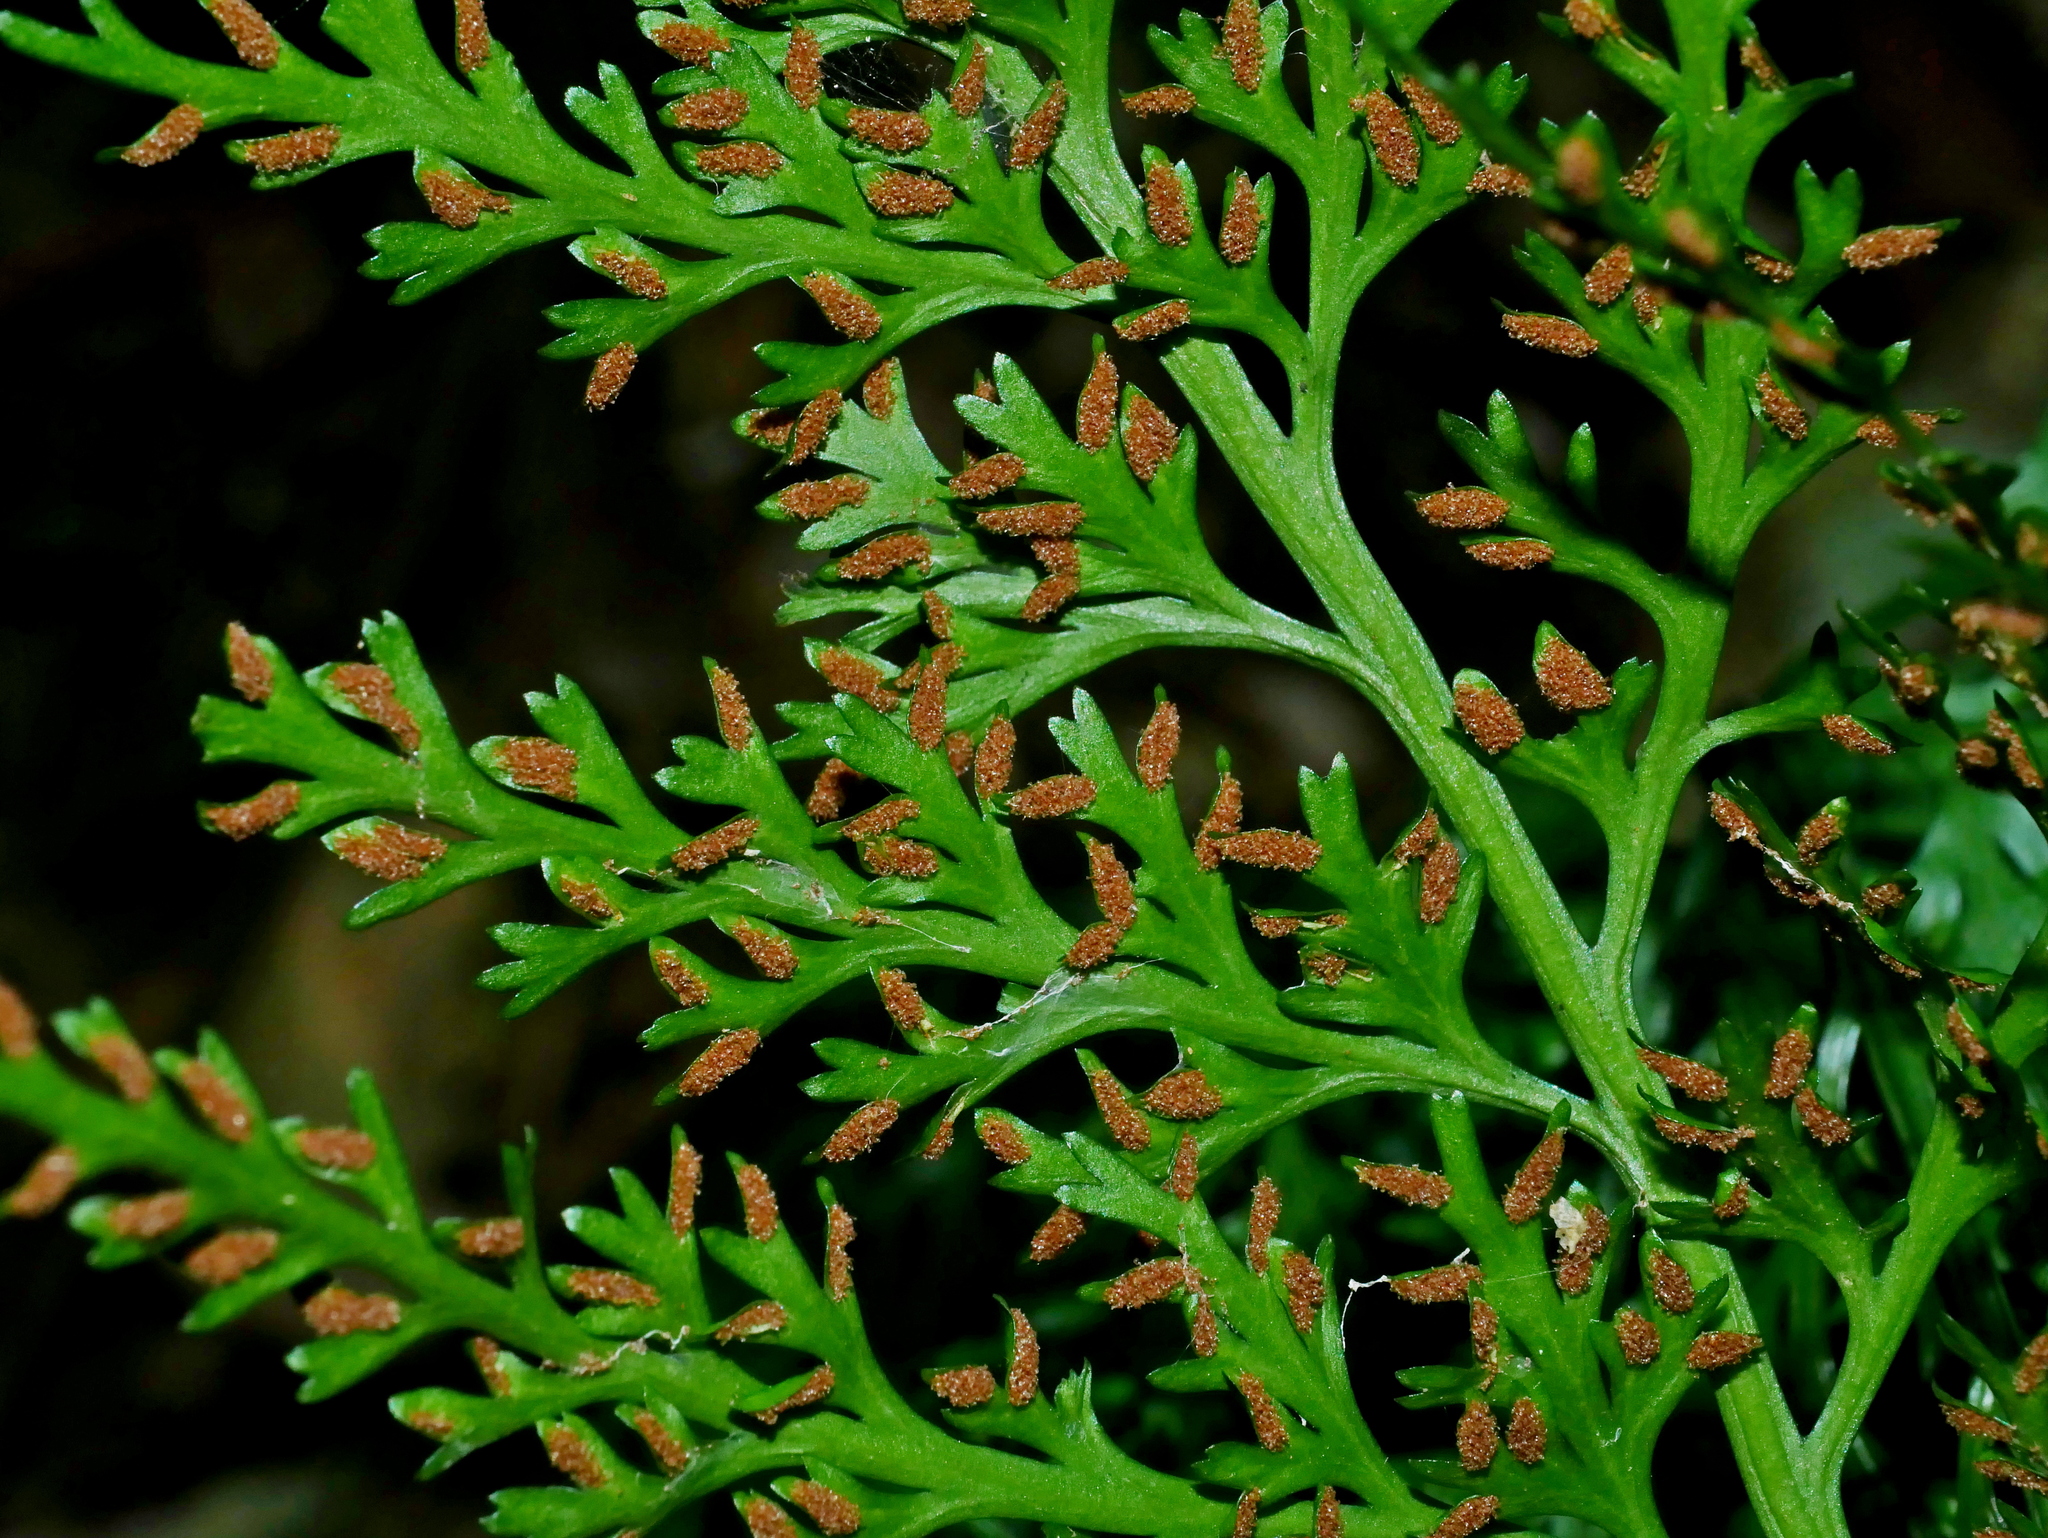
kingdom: Plantae
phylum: Tracheophyta
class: Polypodiopsida
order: Polypodiales
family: Aspleniaceae
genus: Asplenium
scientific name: Asplenium ritoense
